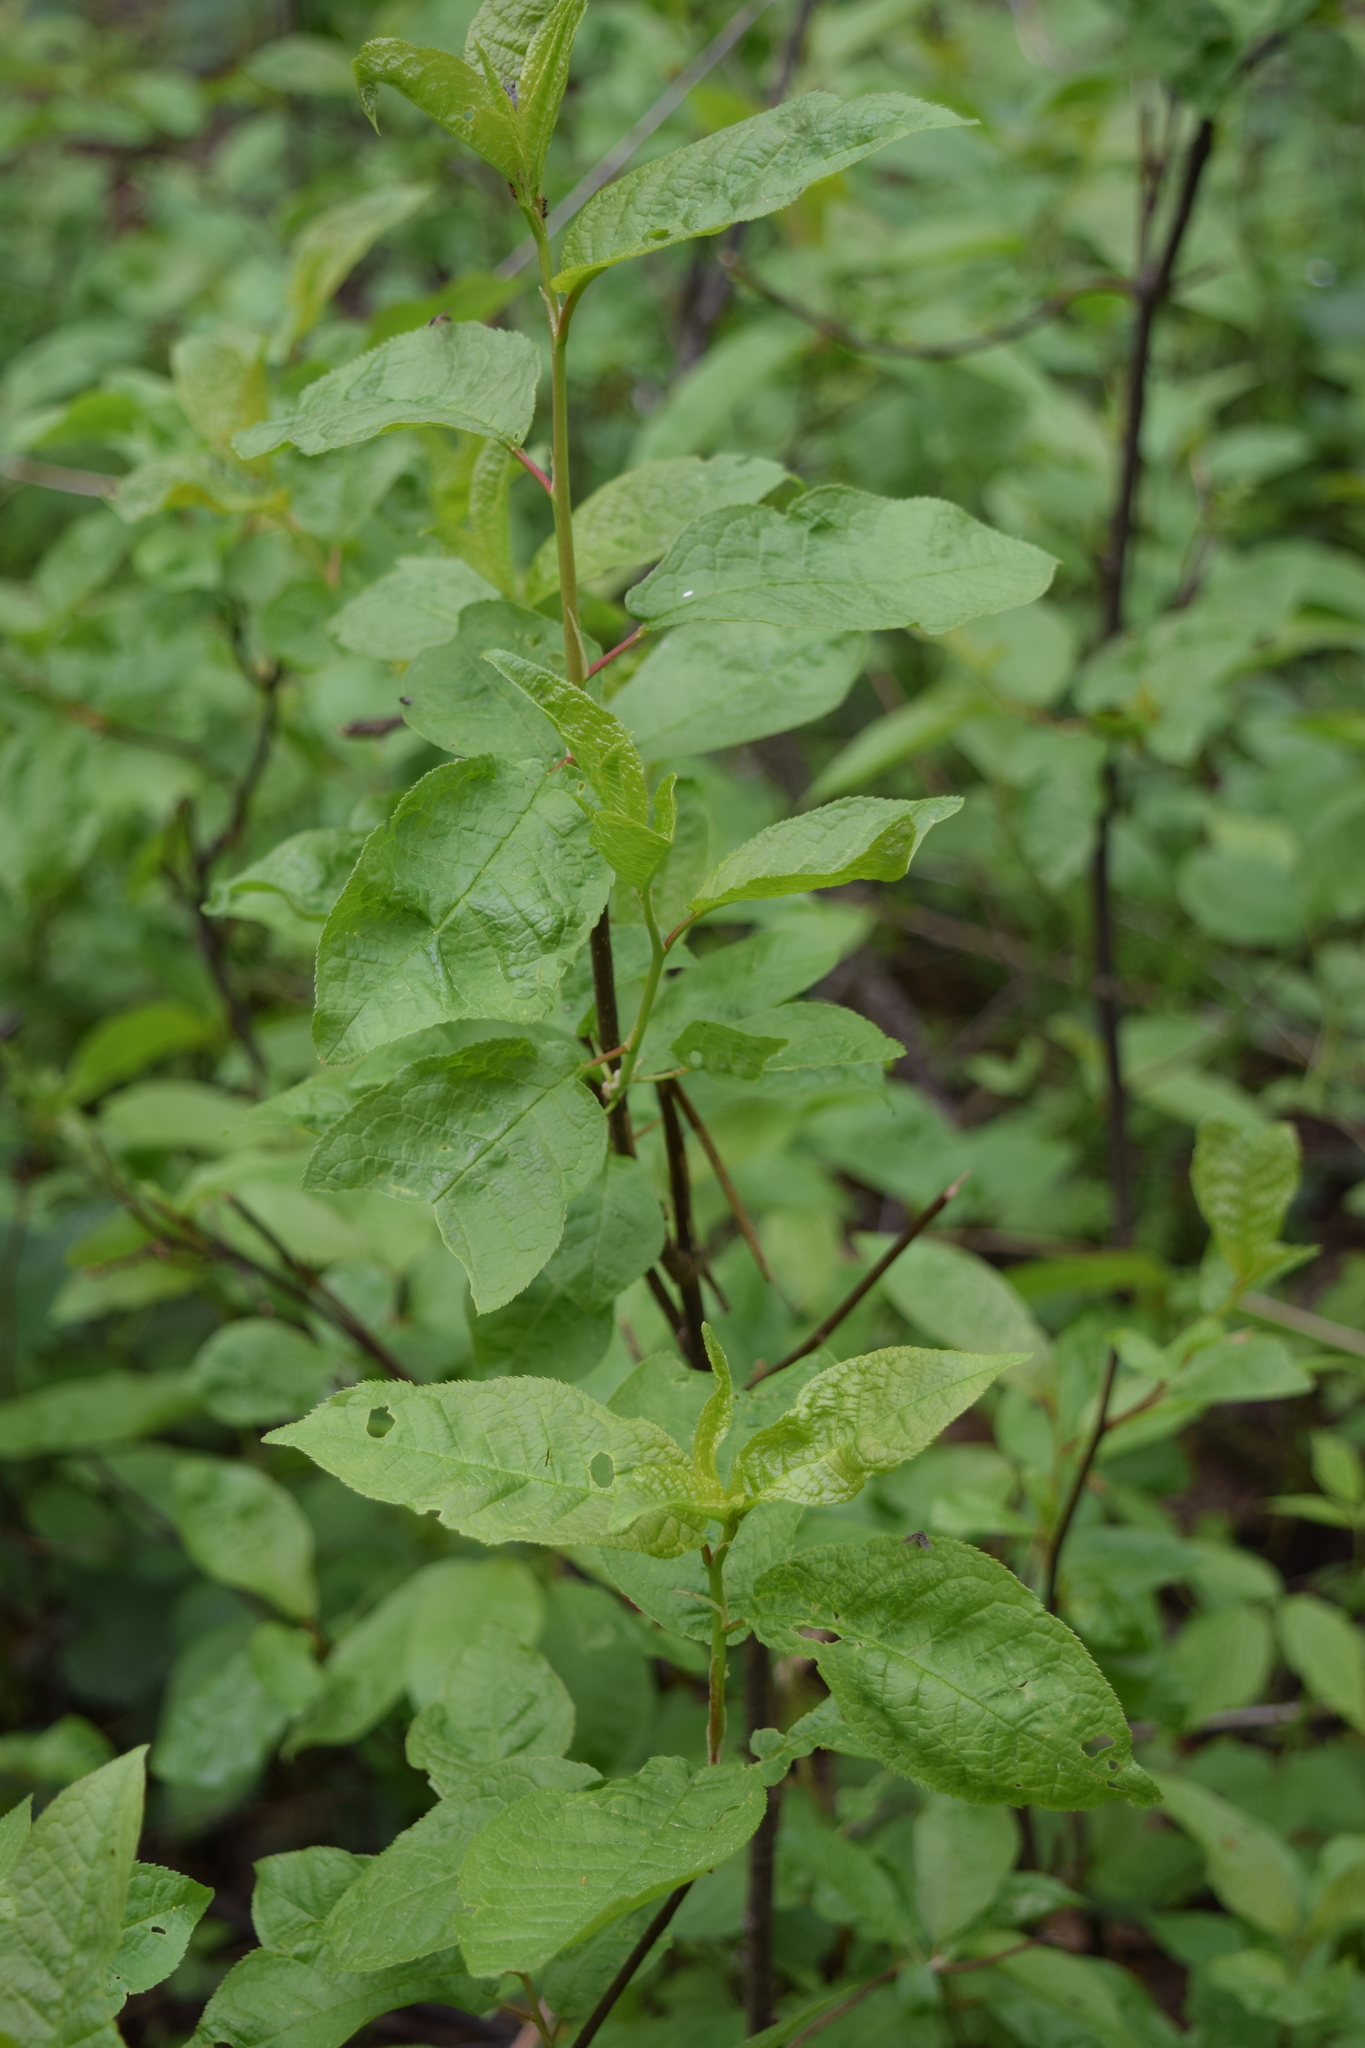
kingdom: Plantae
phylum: Tracheophyta
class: Magnoliopsida
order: Rosales
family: Rosaceae
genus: Prunus
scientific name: Prunus padus
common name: Bird cherry
